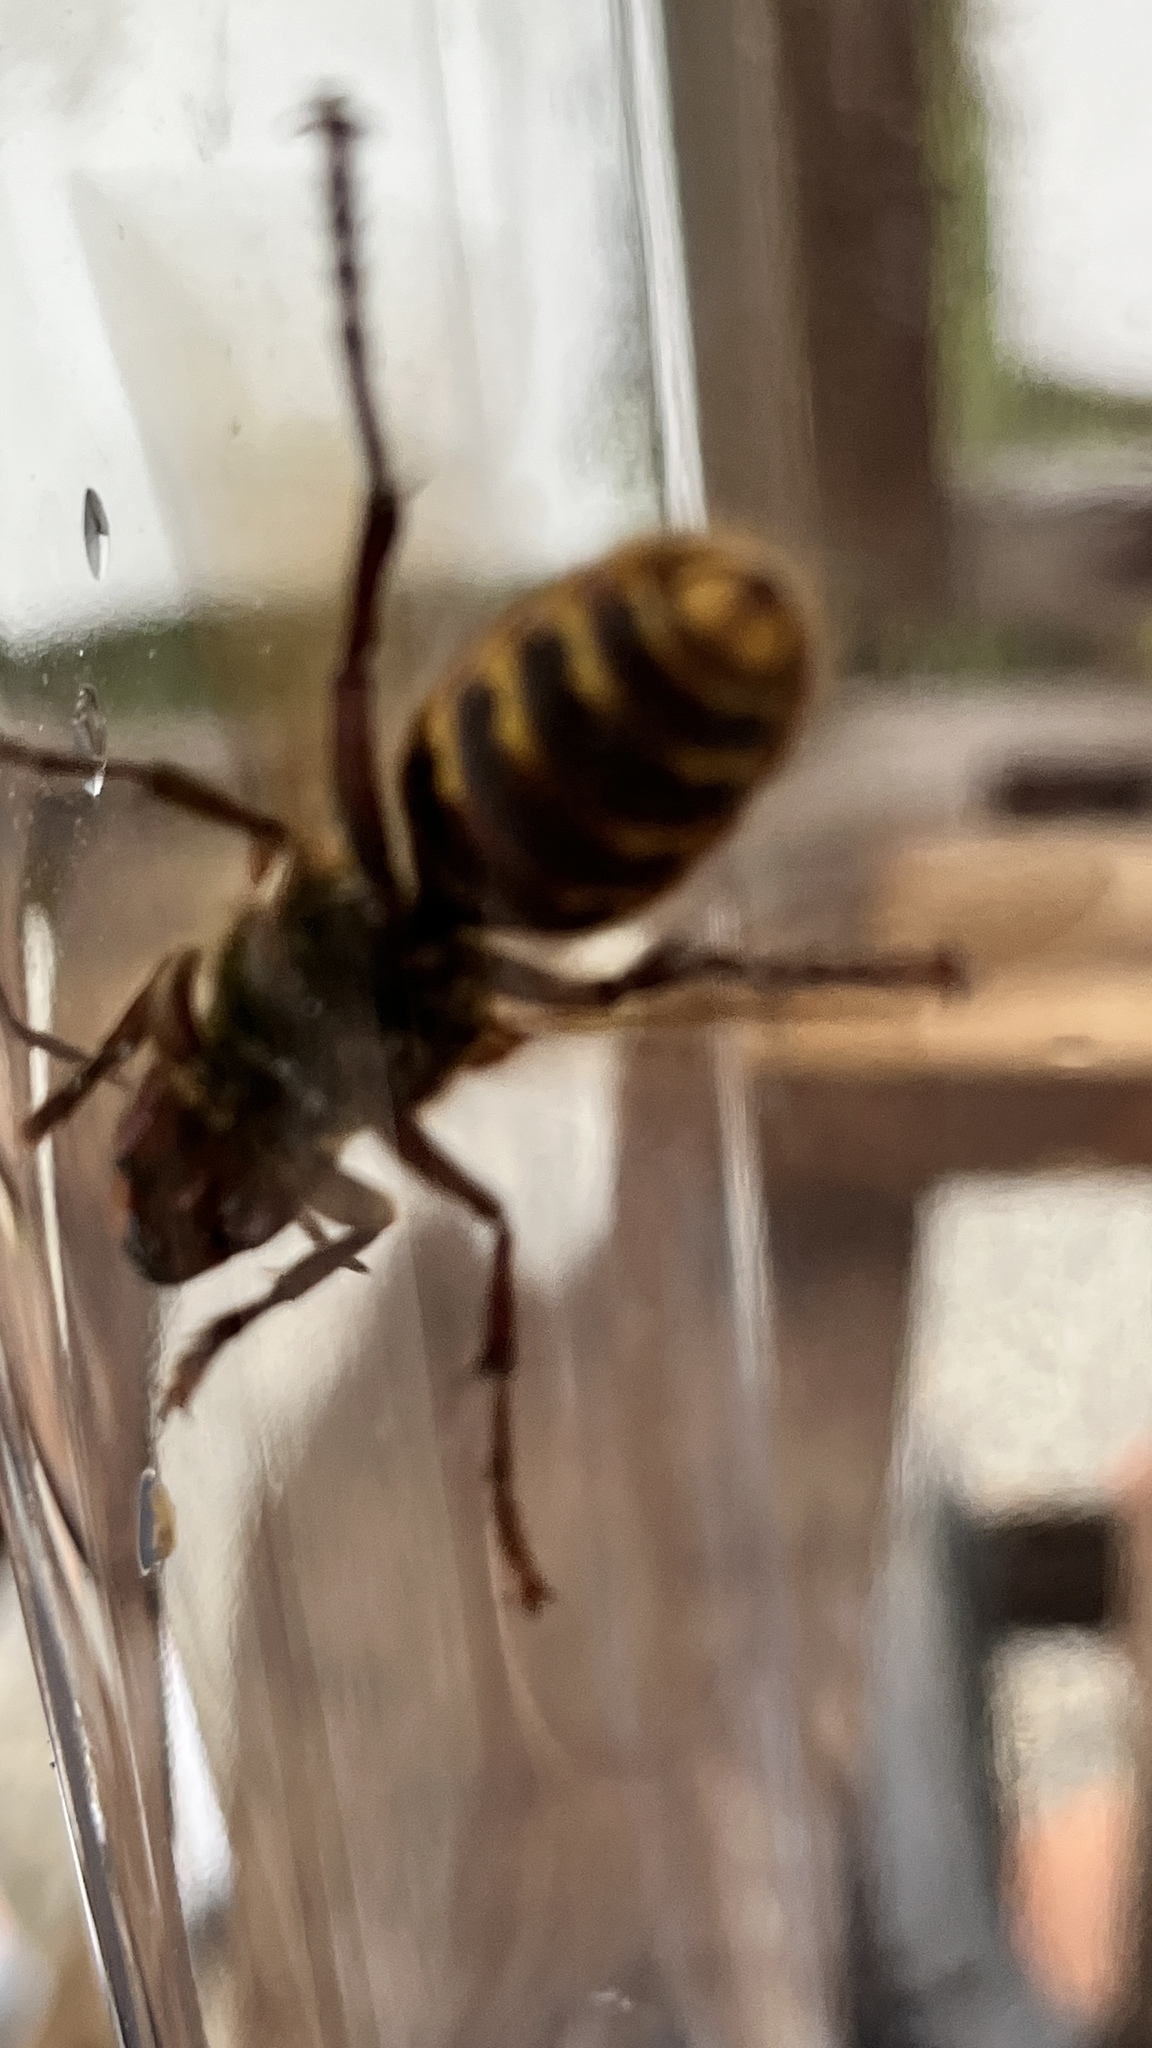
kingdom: Animalia
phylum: Arthropoda
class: Insecta
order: Hymenoptera
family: Vespidae
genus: Vespa
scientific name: Vespa crabro
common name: Hornet
